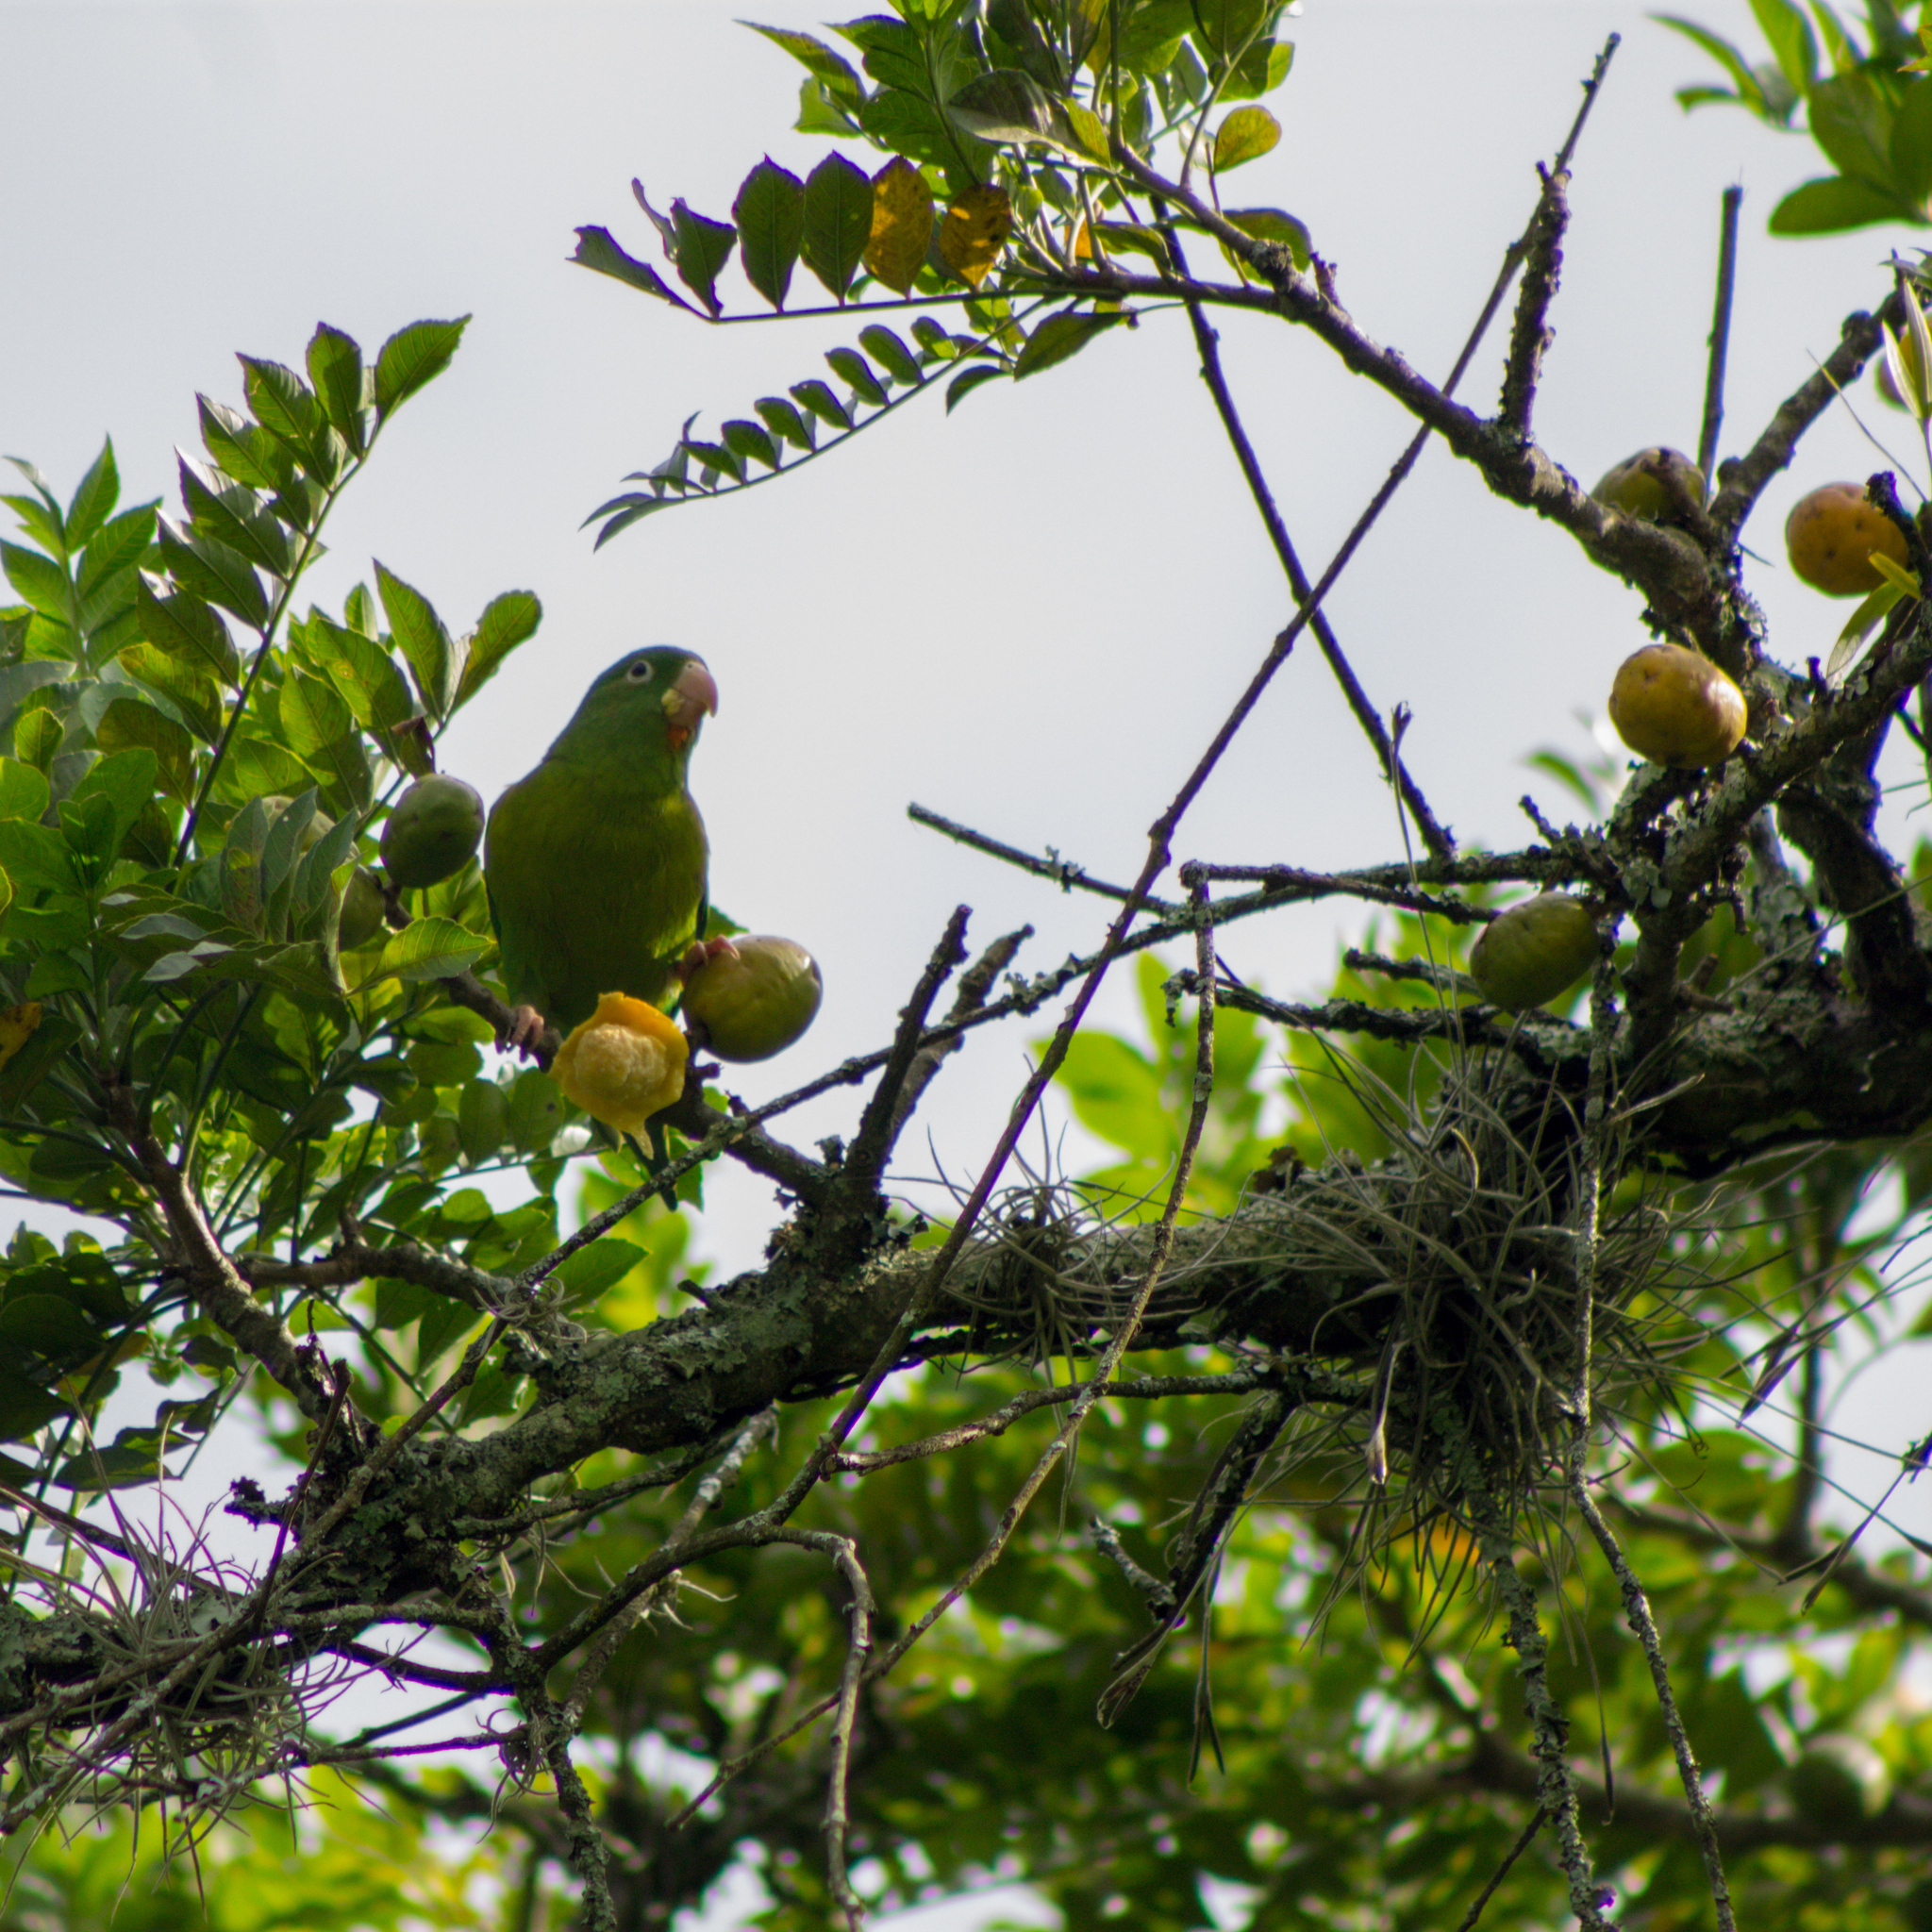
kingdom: Animalia
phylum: Chordata
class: Aves
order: Psittaciformes
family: Psittacidae
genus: Brotogeris
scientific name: Brotogeris jugularis
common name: Orange-chinned parakeet
